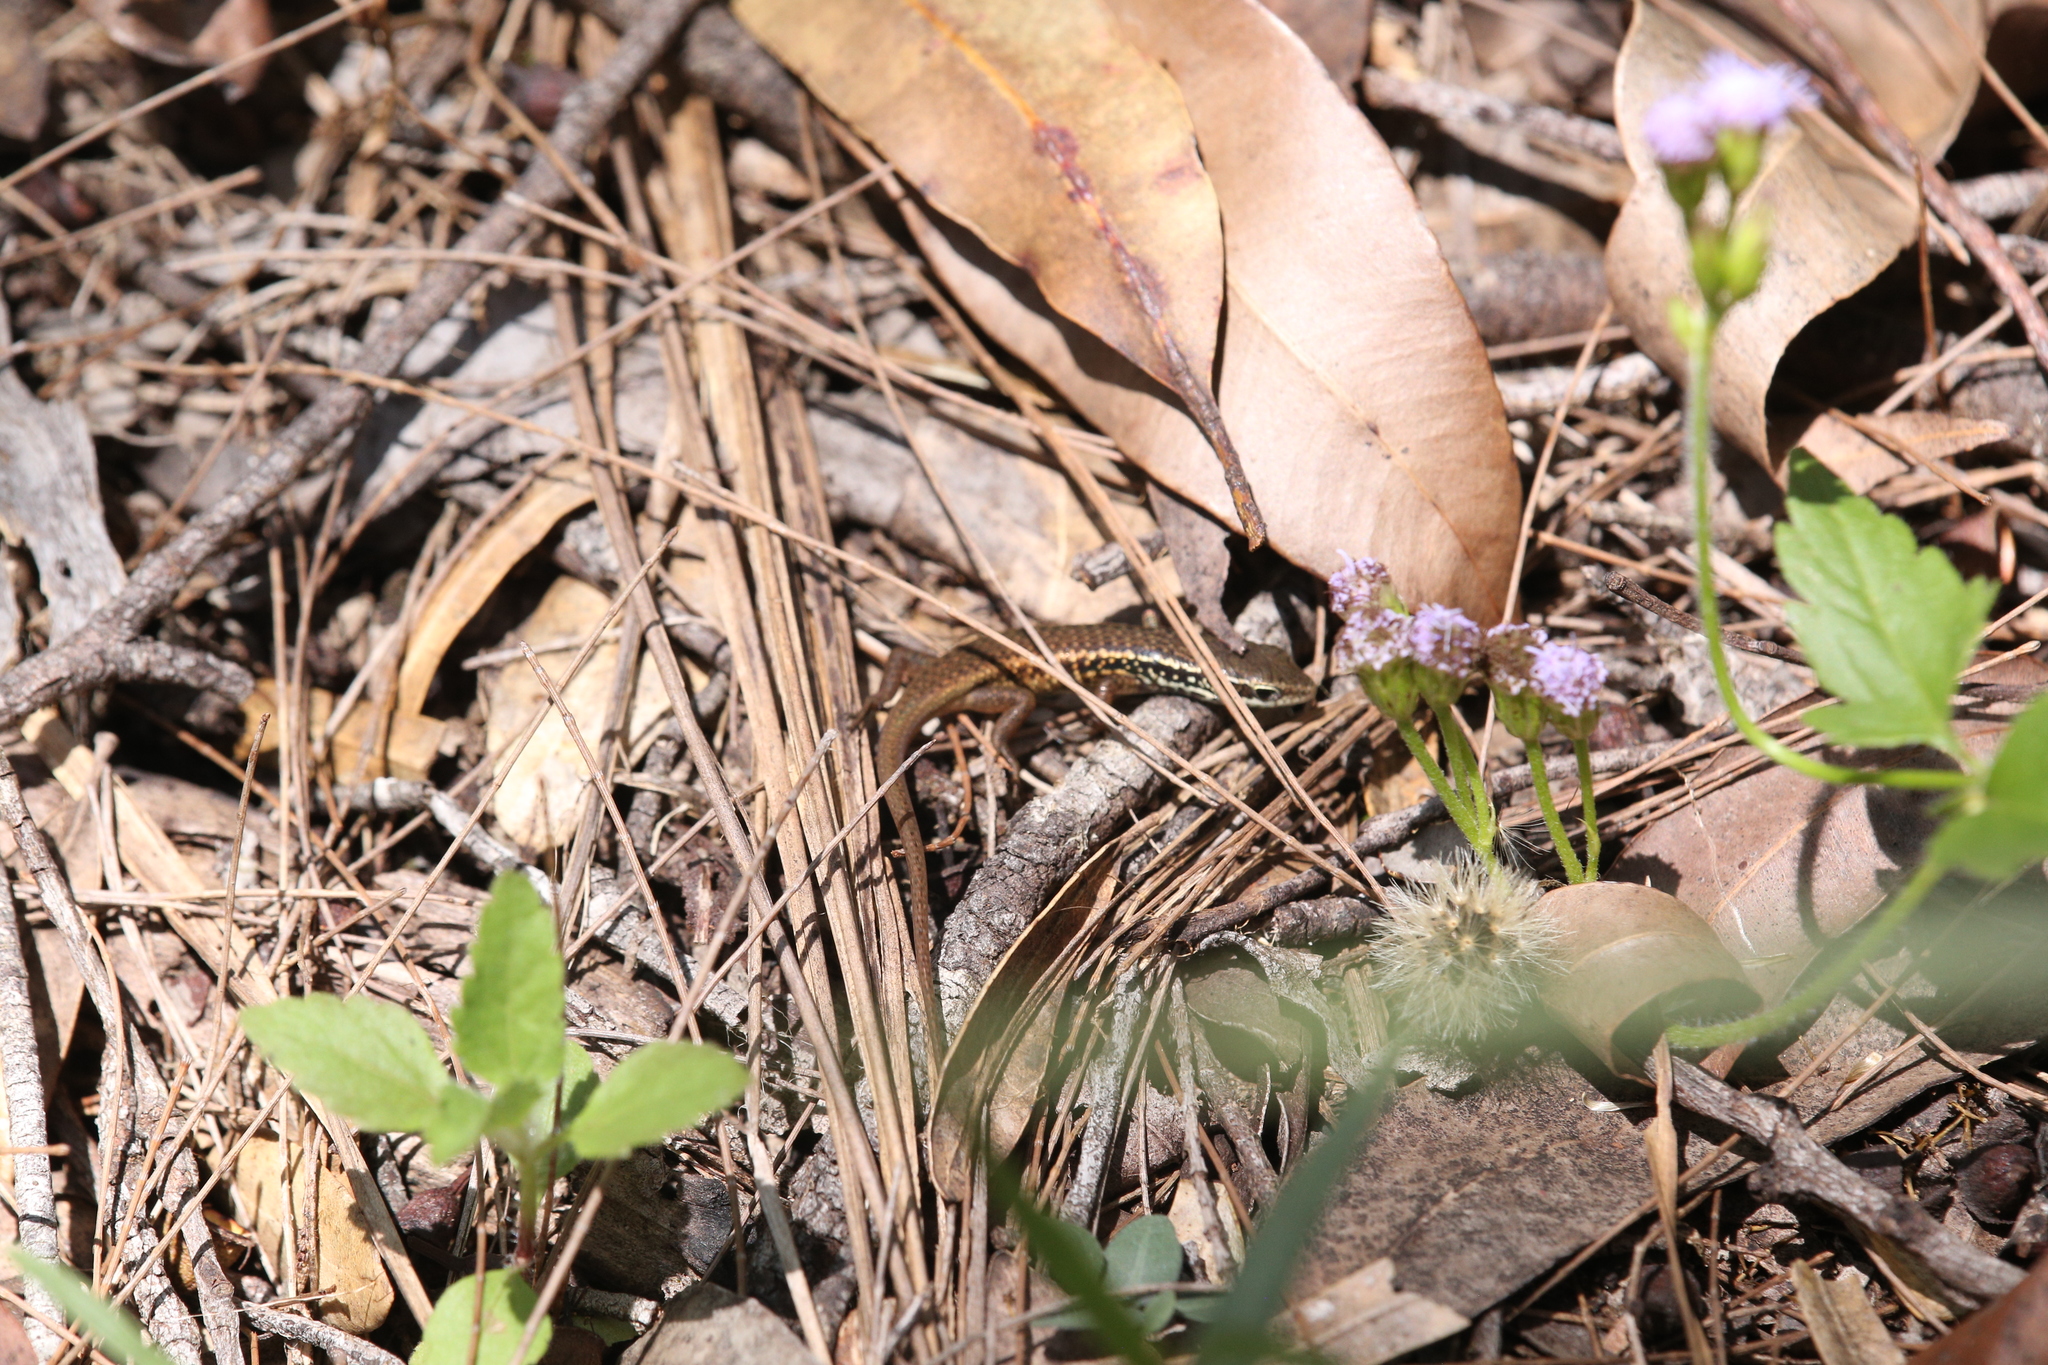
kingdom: Animalia
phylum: Chordata
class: Squamata
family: Scincidae
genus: Carlia
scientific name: Carlia rostralis
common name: Black-throated rainbow-skink
